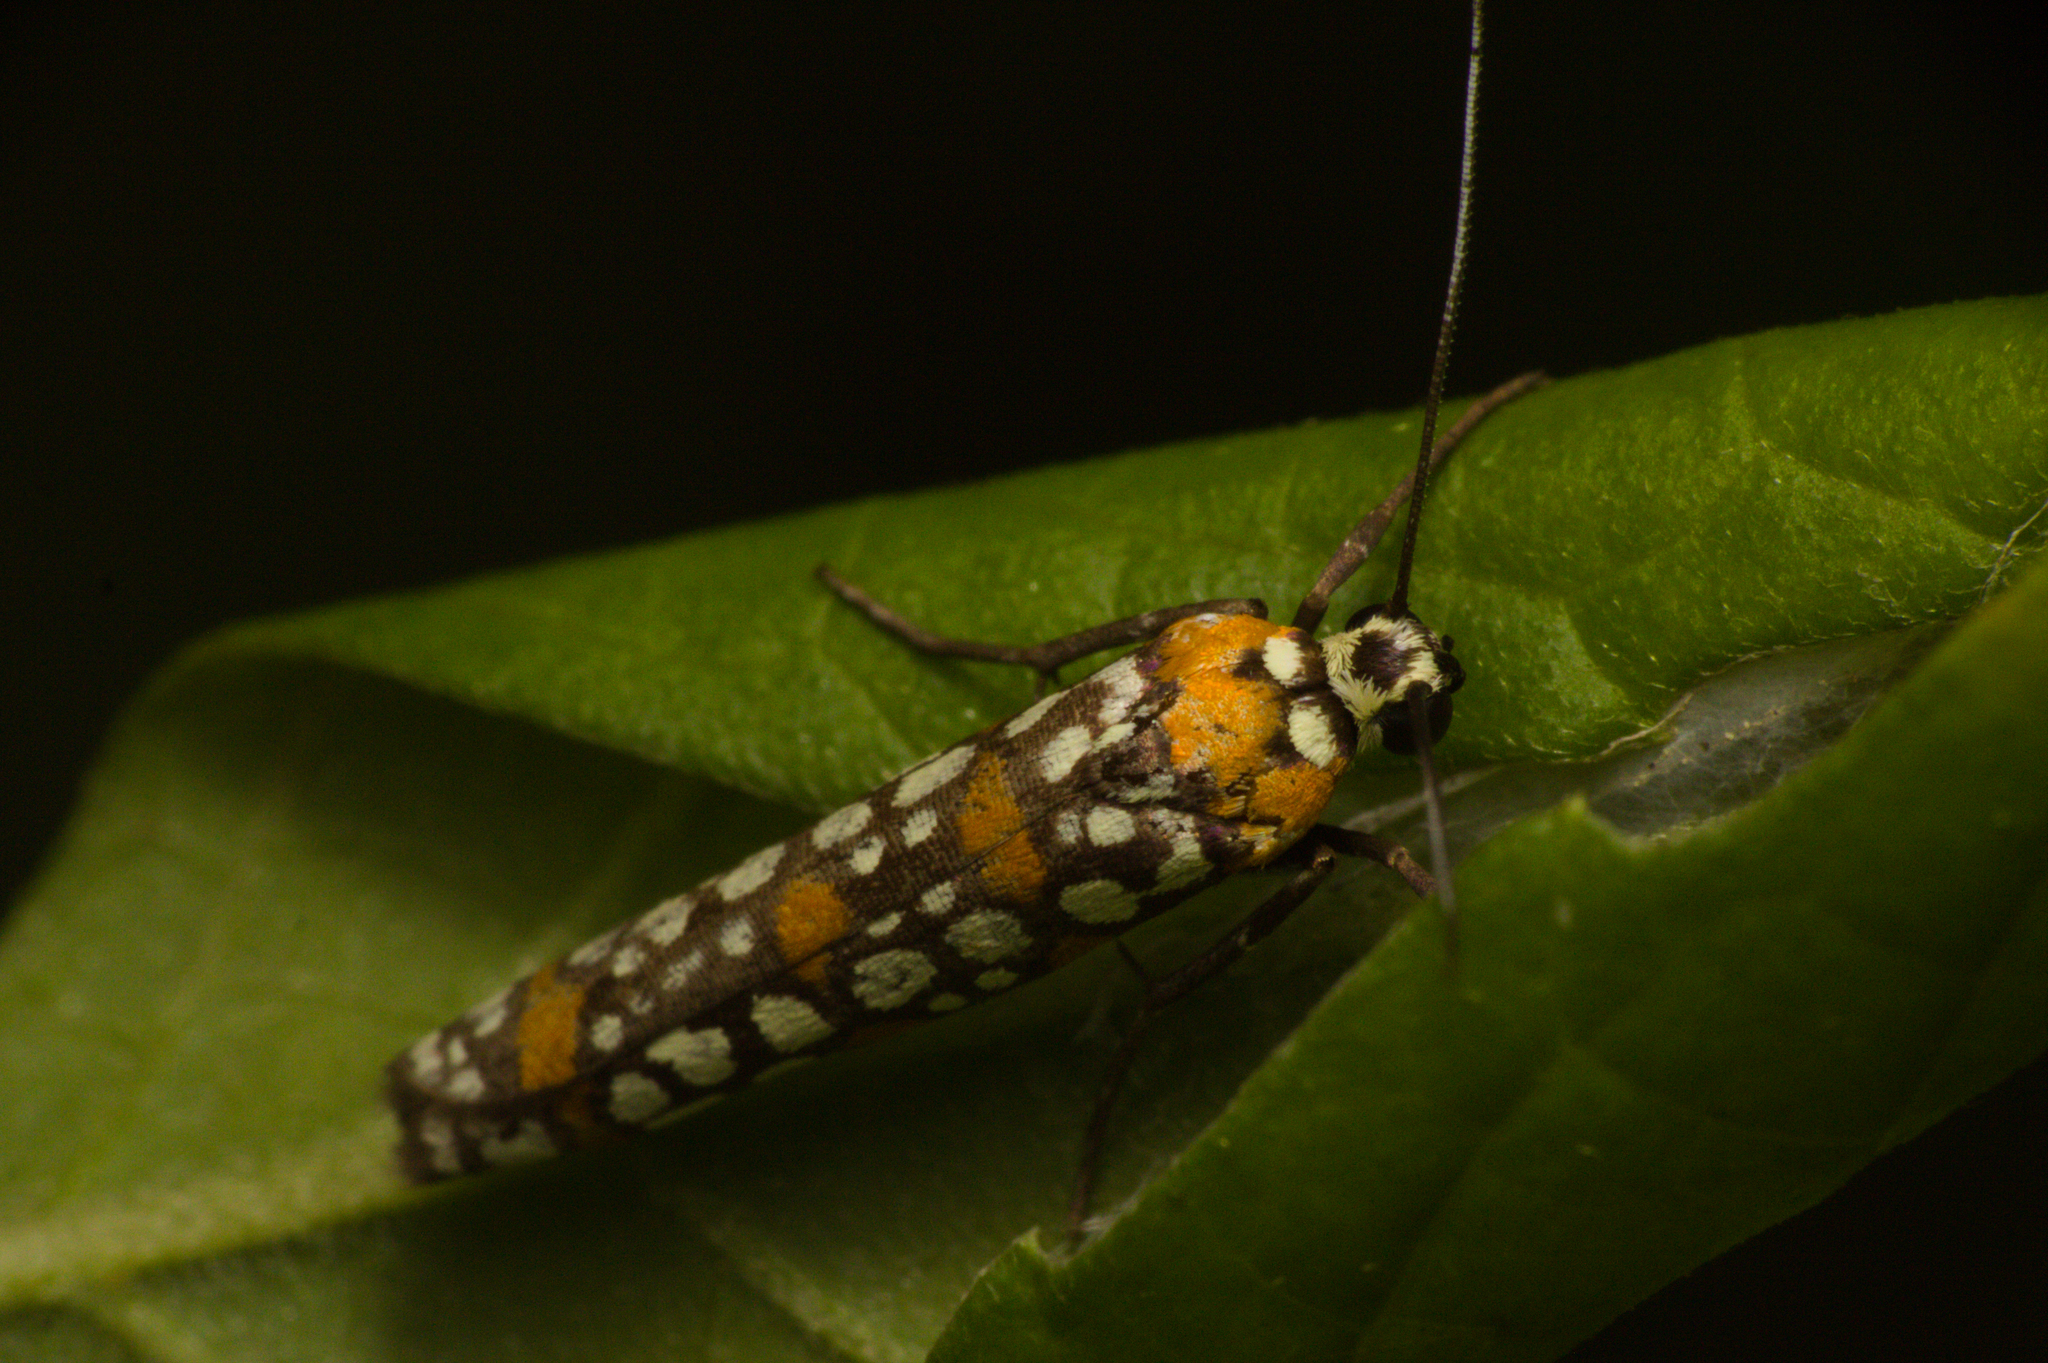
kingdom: Animalia
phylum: Arthropoda
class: Insecta
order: Lepidoptera
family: Attevidae
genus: Atteva
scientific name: Atteva punctella
